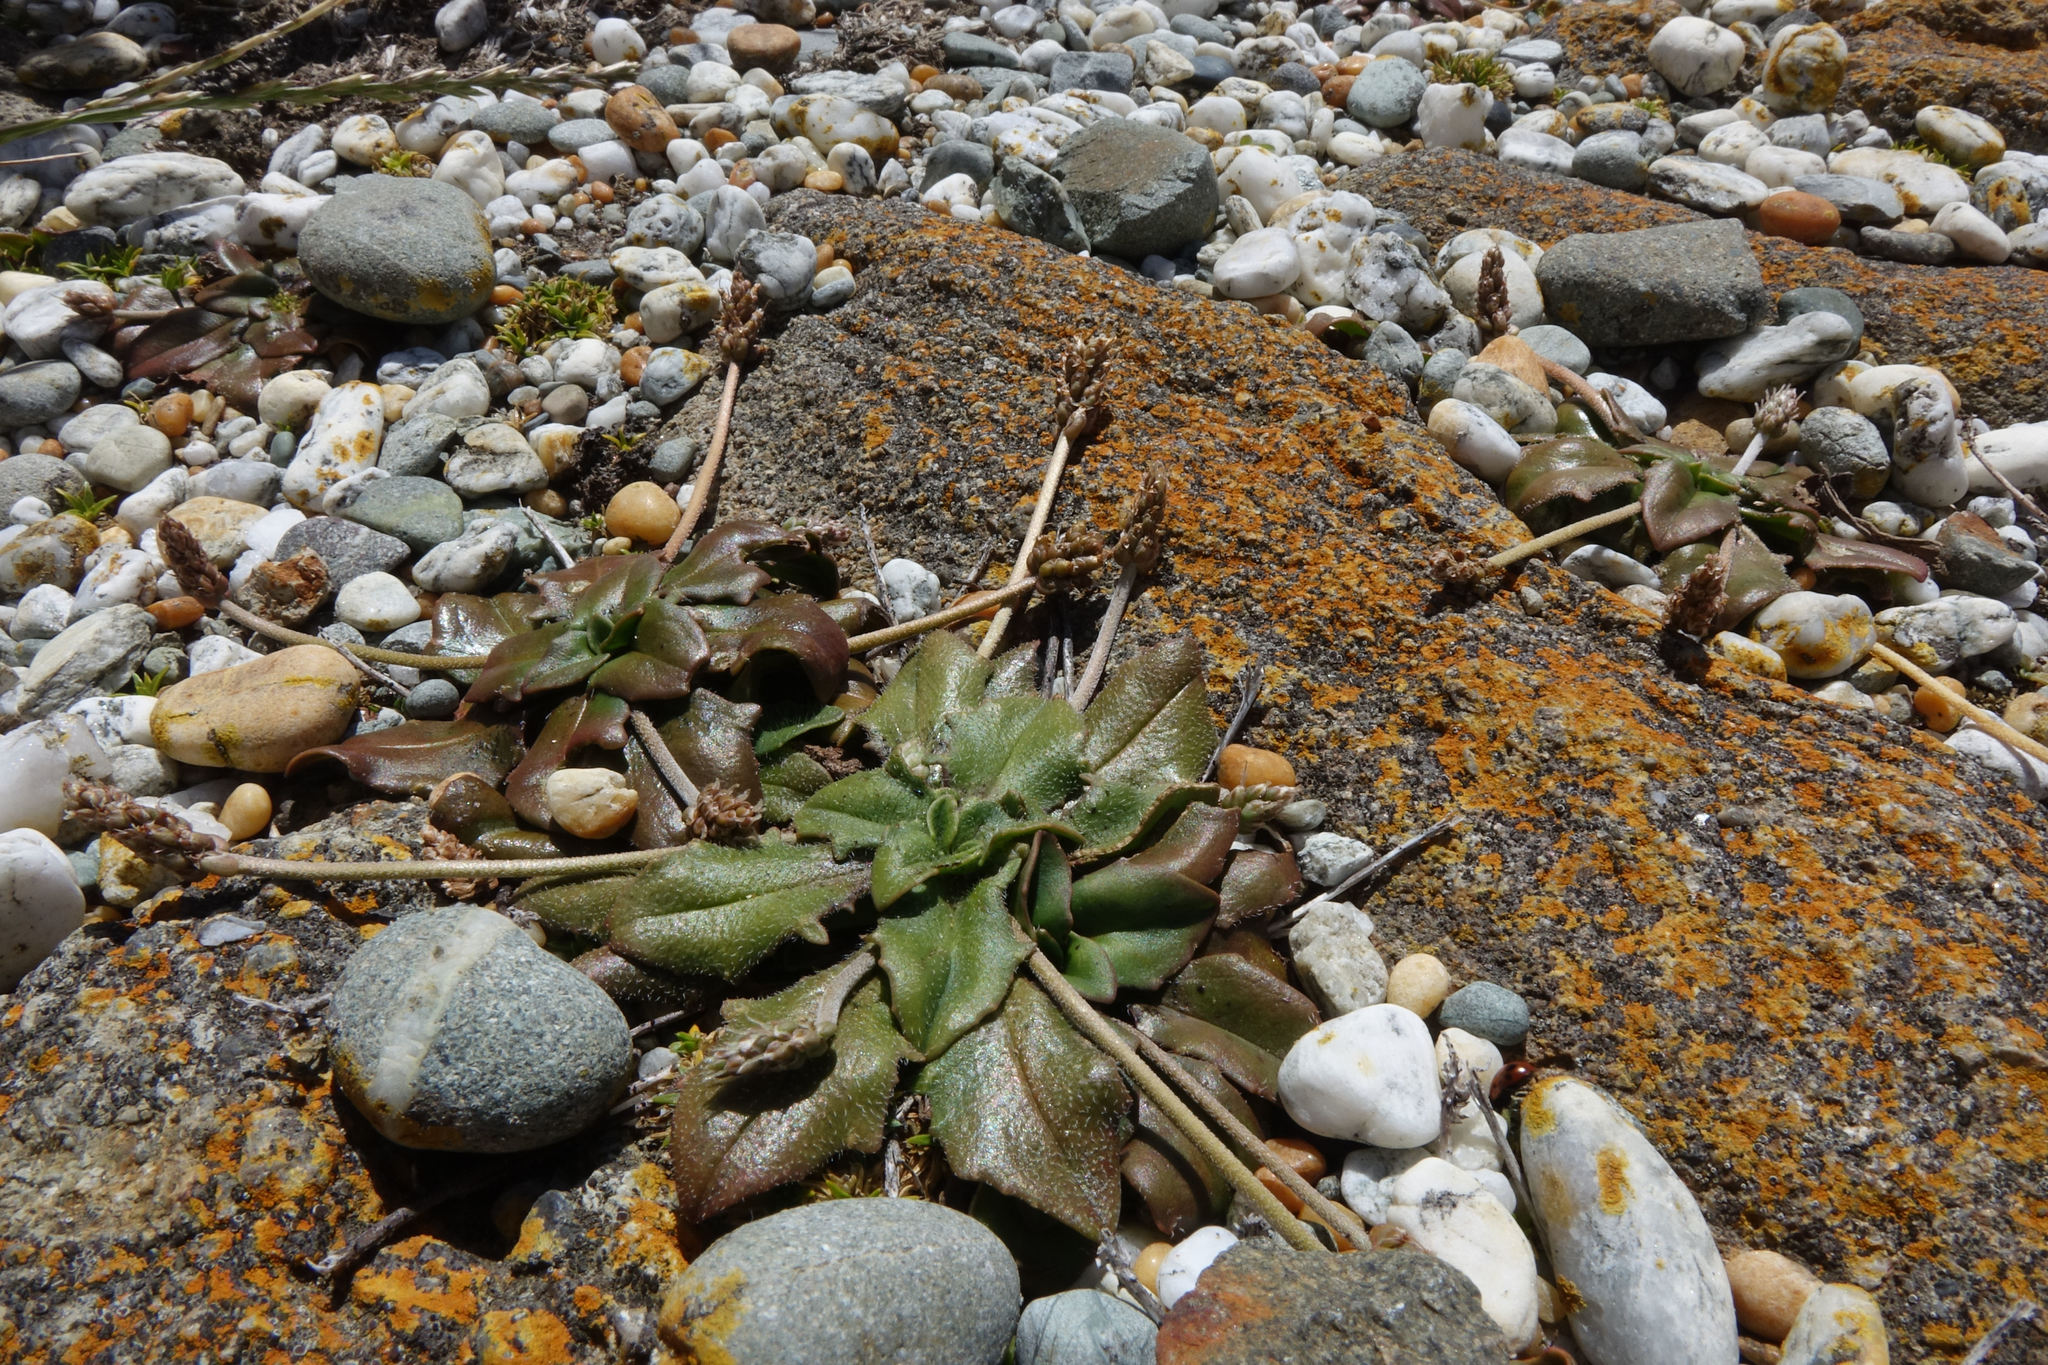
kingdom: Plantae
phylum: Tracheophyta
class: Magnoliopsida
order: Lamiales
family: Plantaginaceae
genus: Plantago
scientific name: Plantago raoulii
